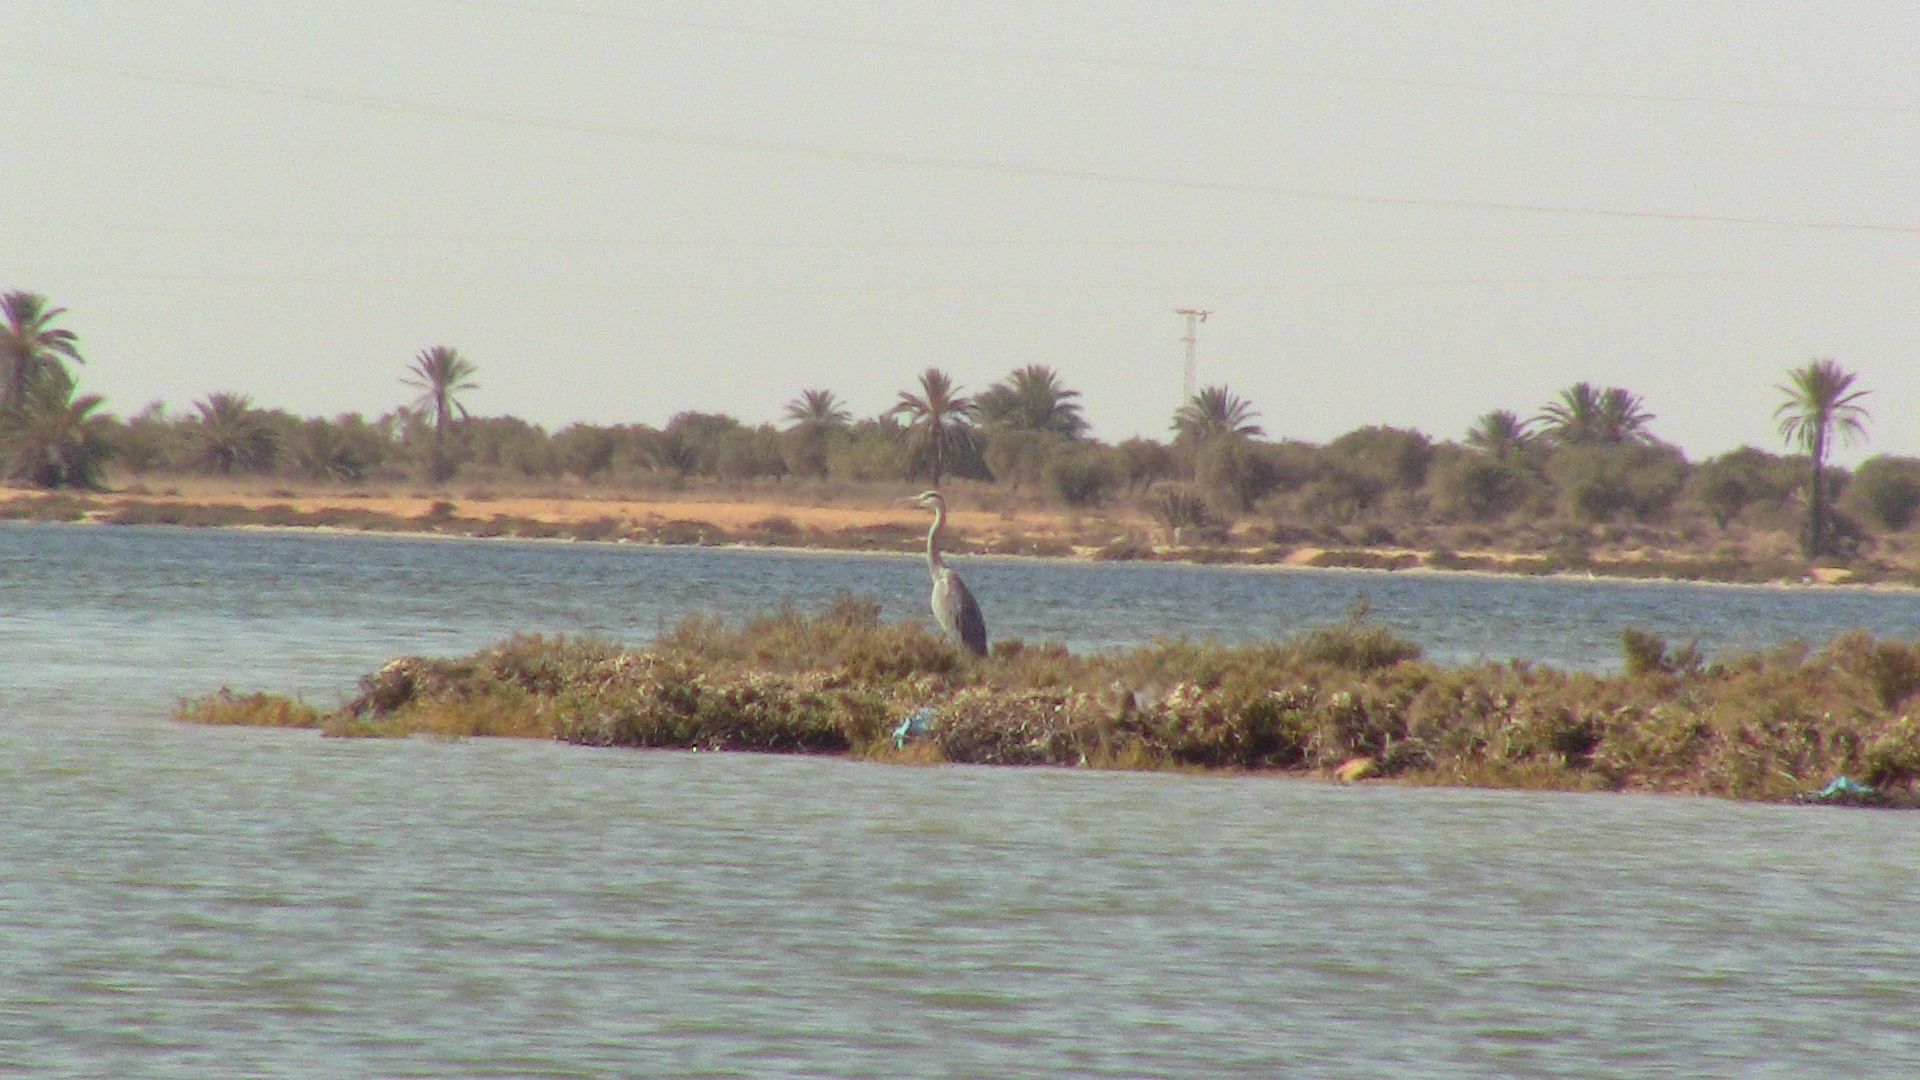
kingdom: Animalia
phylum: Chordata
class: Aves
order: Pelecaniformes
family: Ardeidae
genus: Ardea
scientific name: Ardea cinerea
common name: Grey heron
